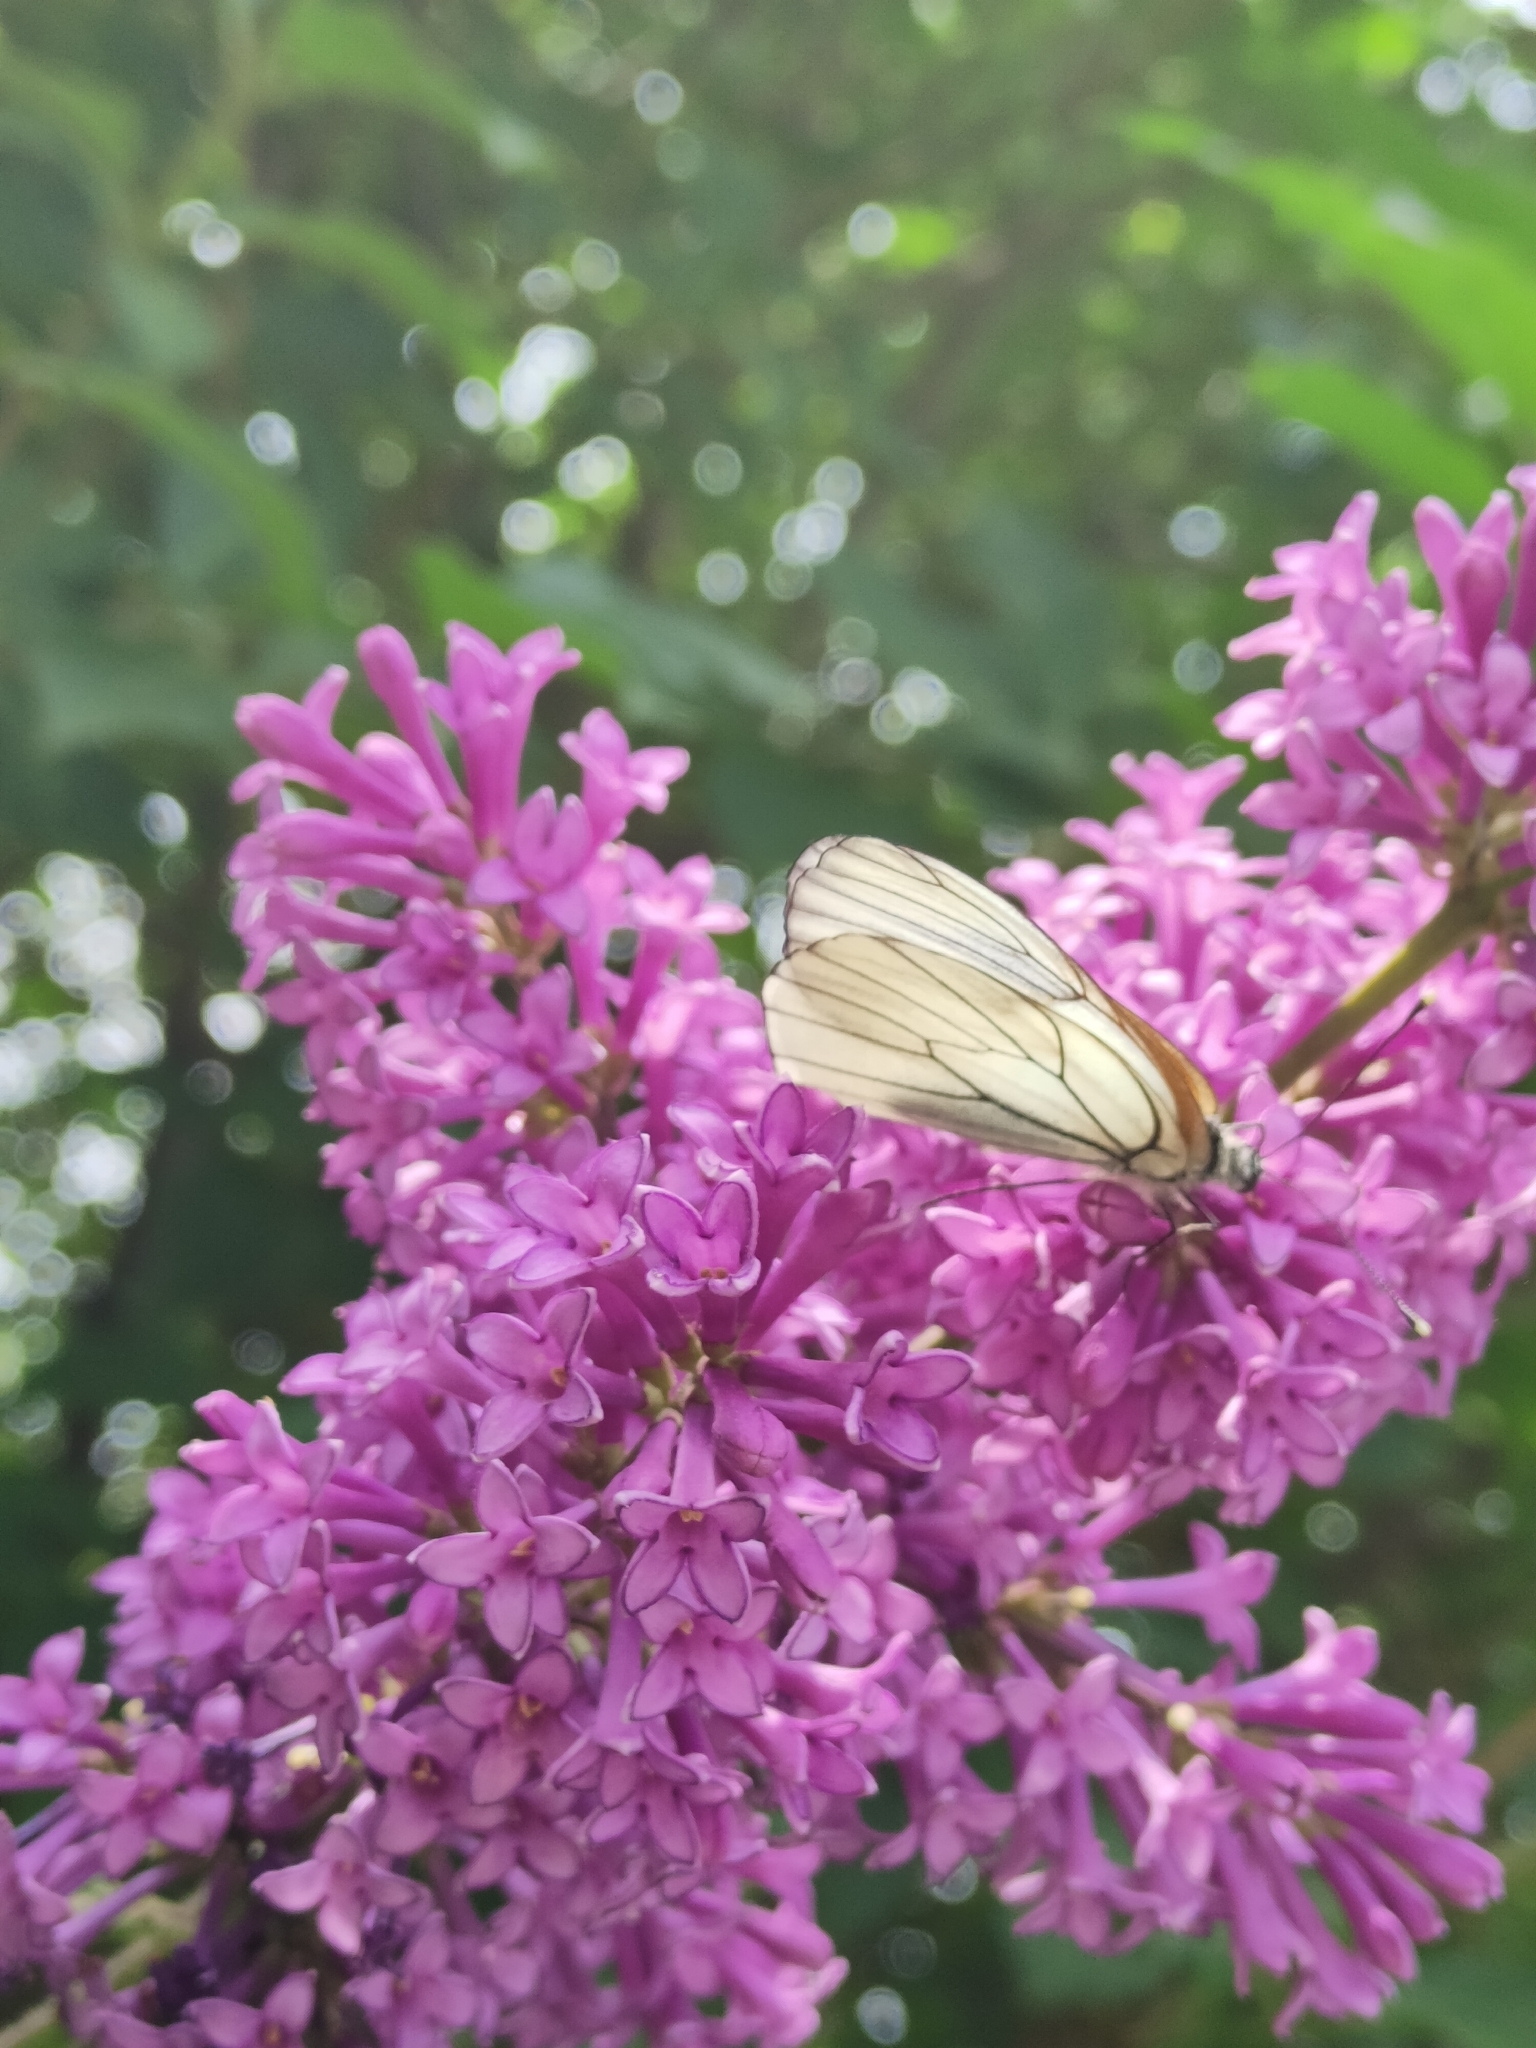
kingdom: Animalia
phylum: Arthropoda
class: Insecta
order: Lepidoptera
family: Pieridae
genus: Aporia
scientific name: Aporia crataegi
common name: Black-veined white
